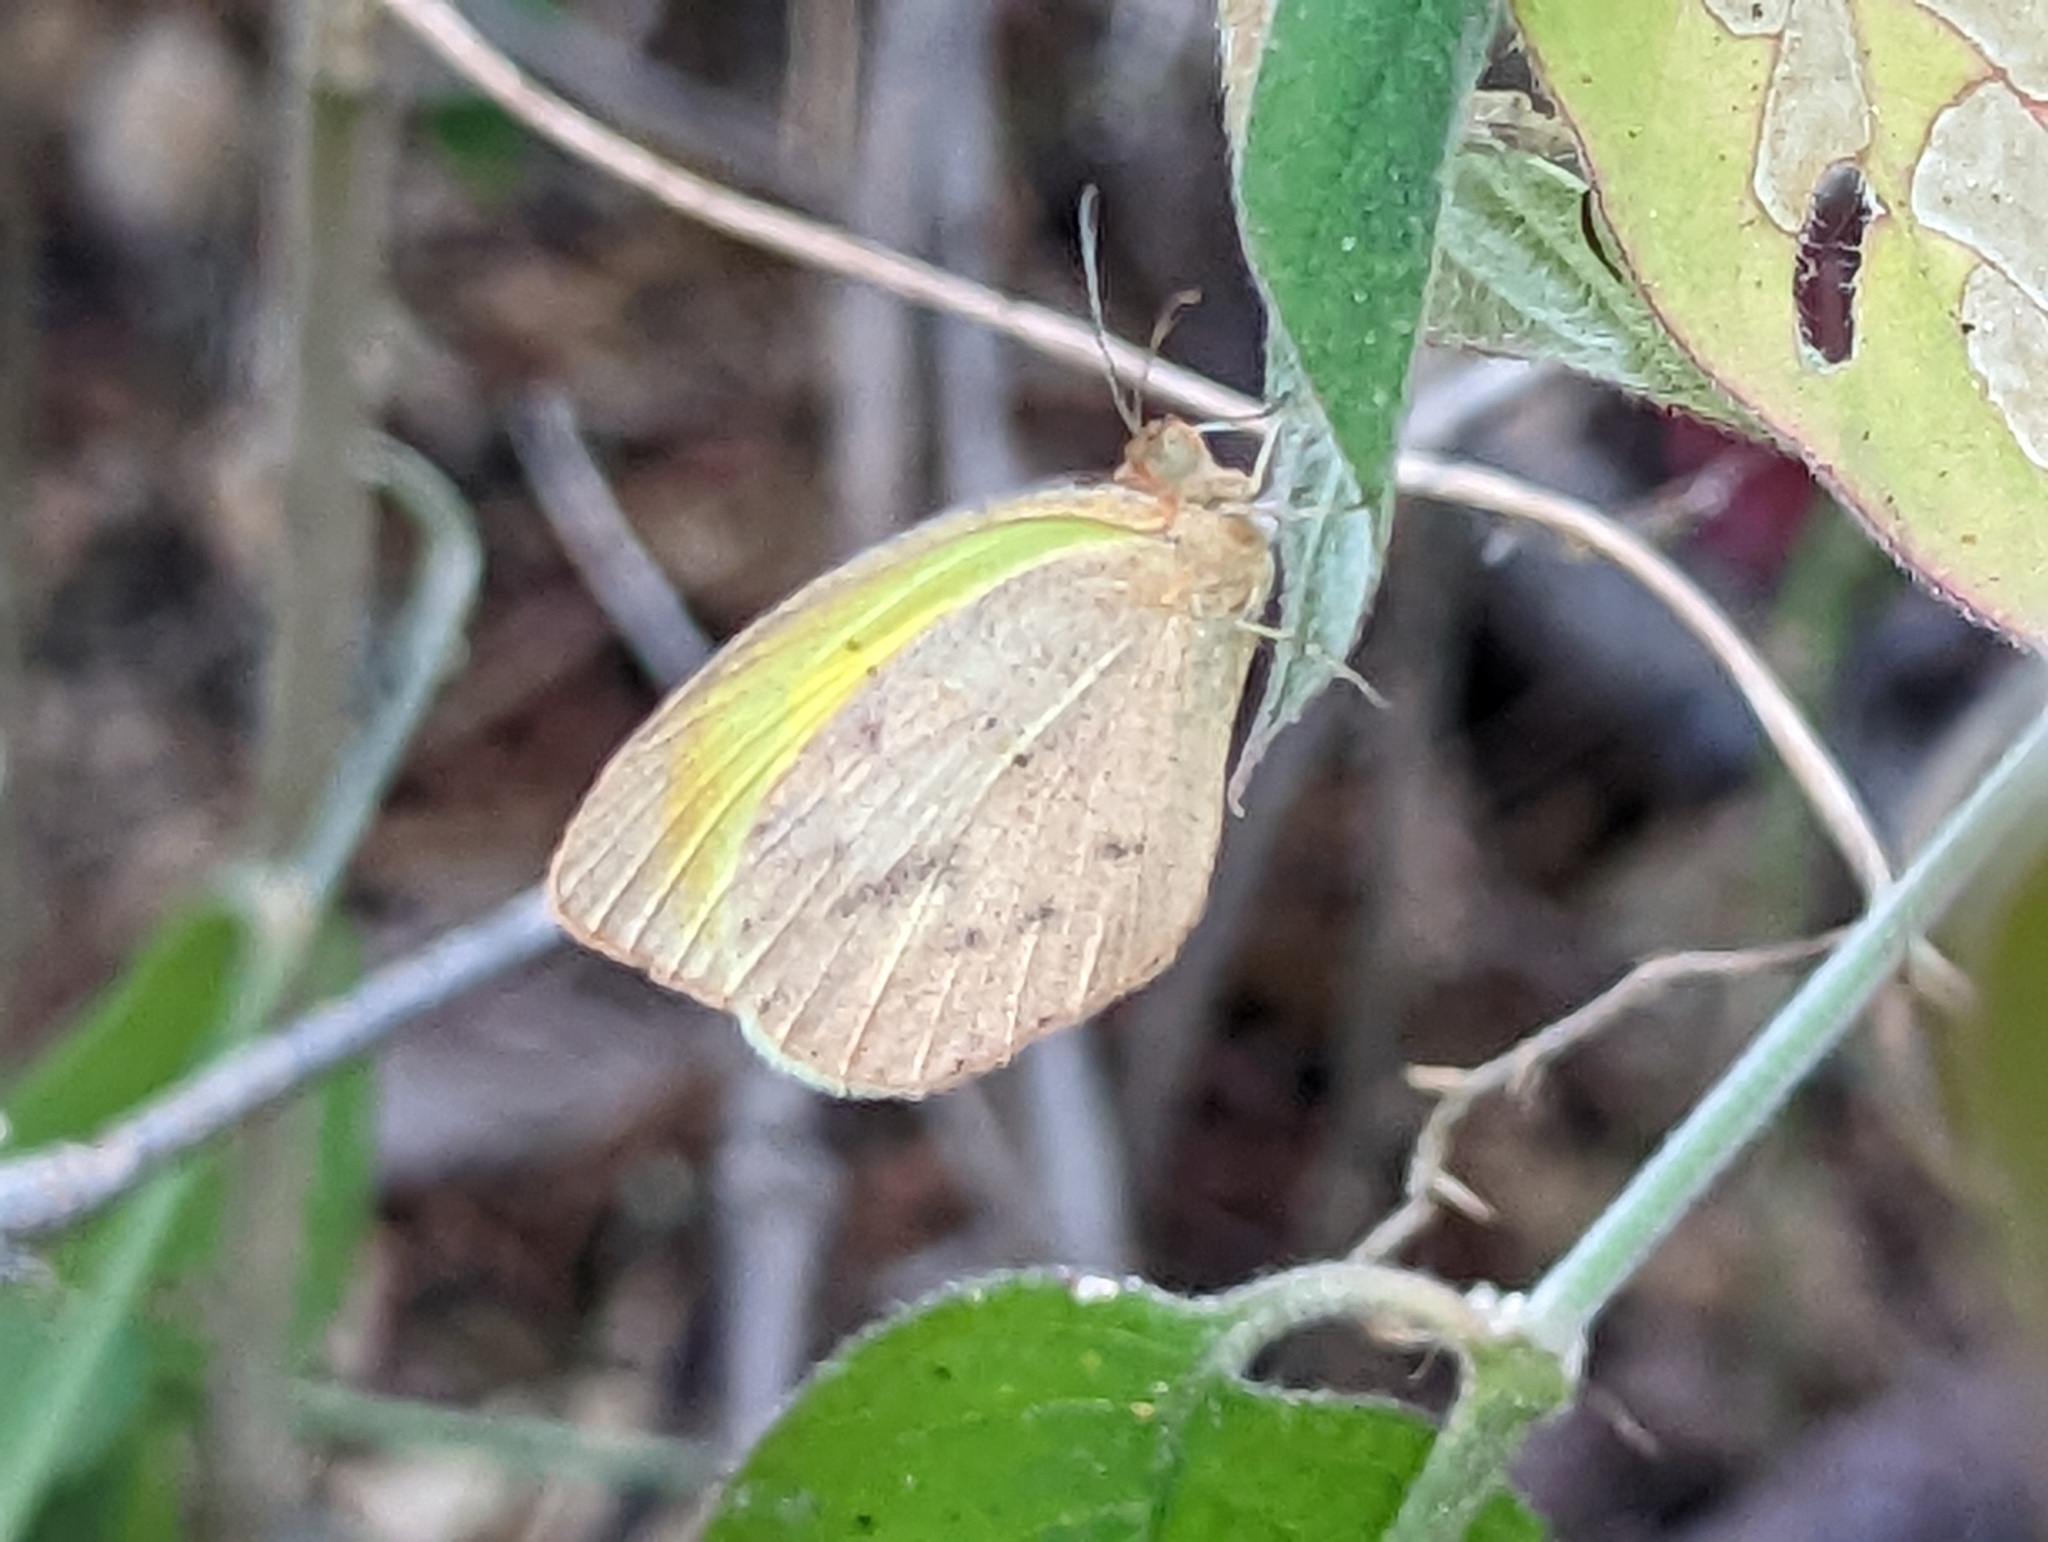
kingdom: Animalia
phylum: Arthropoda
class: Insecta
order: Lepidoptera
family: Pieridae
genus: Eurema
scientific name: Eurema daira
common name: Barred sulphur
